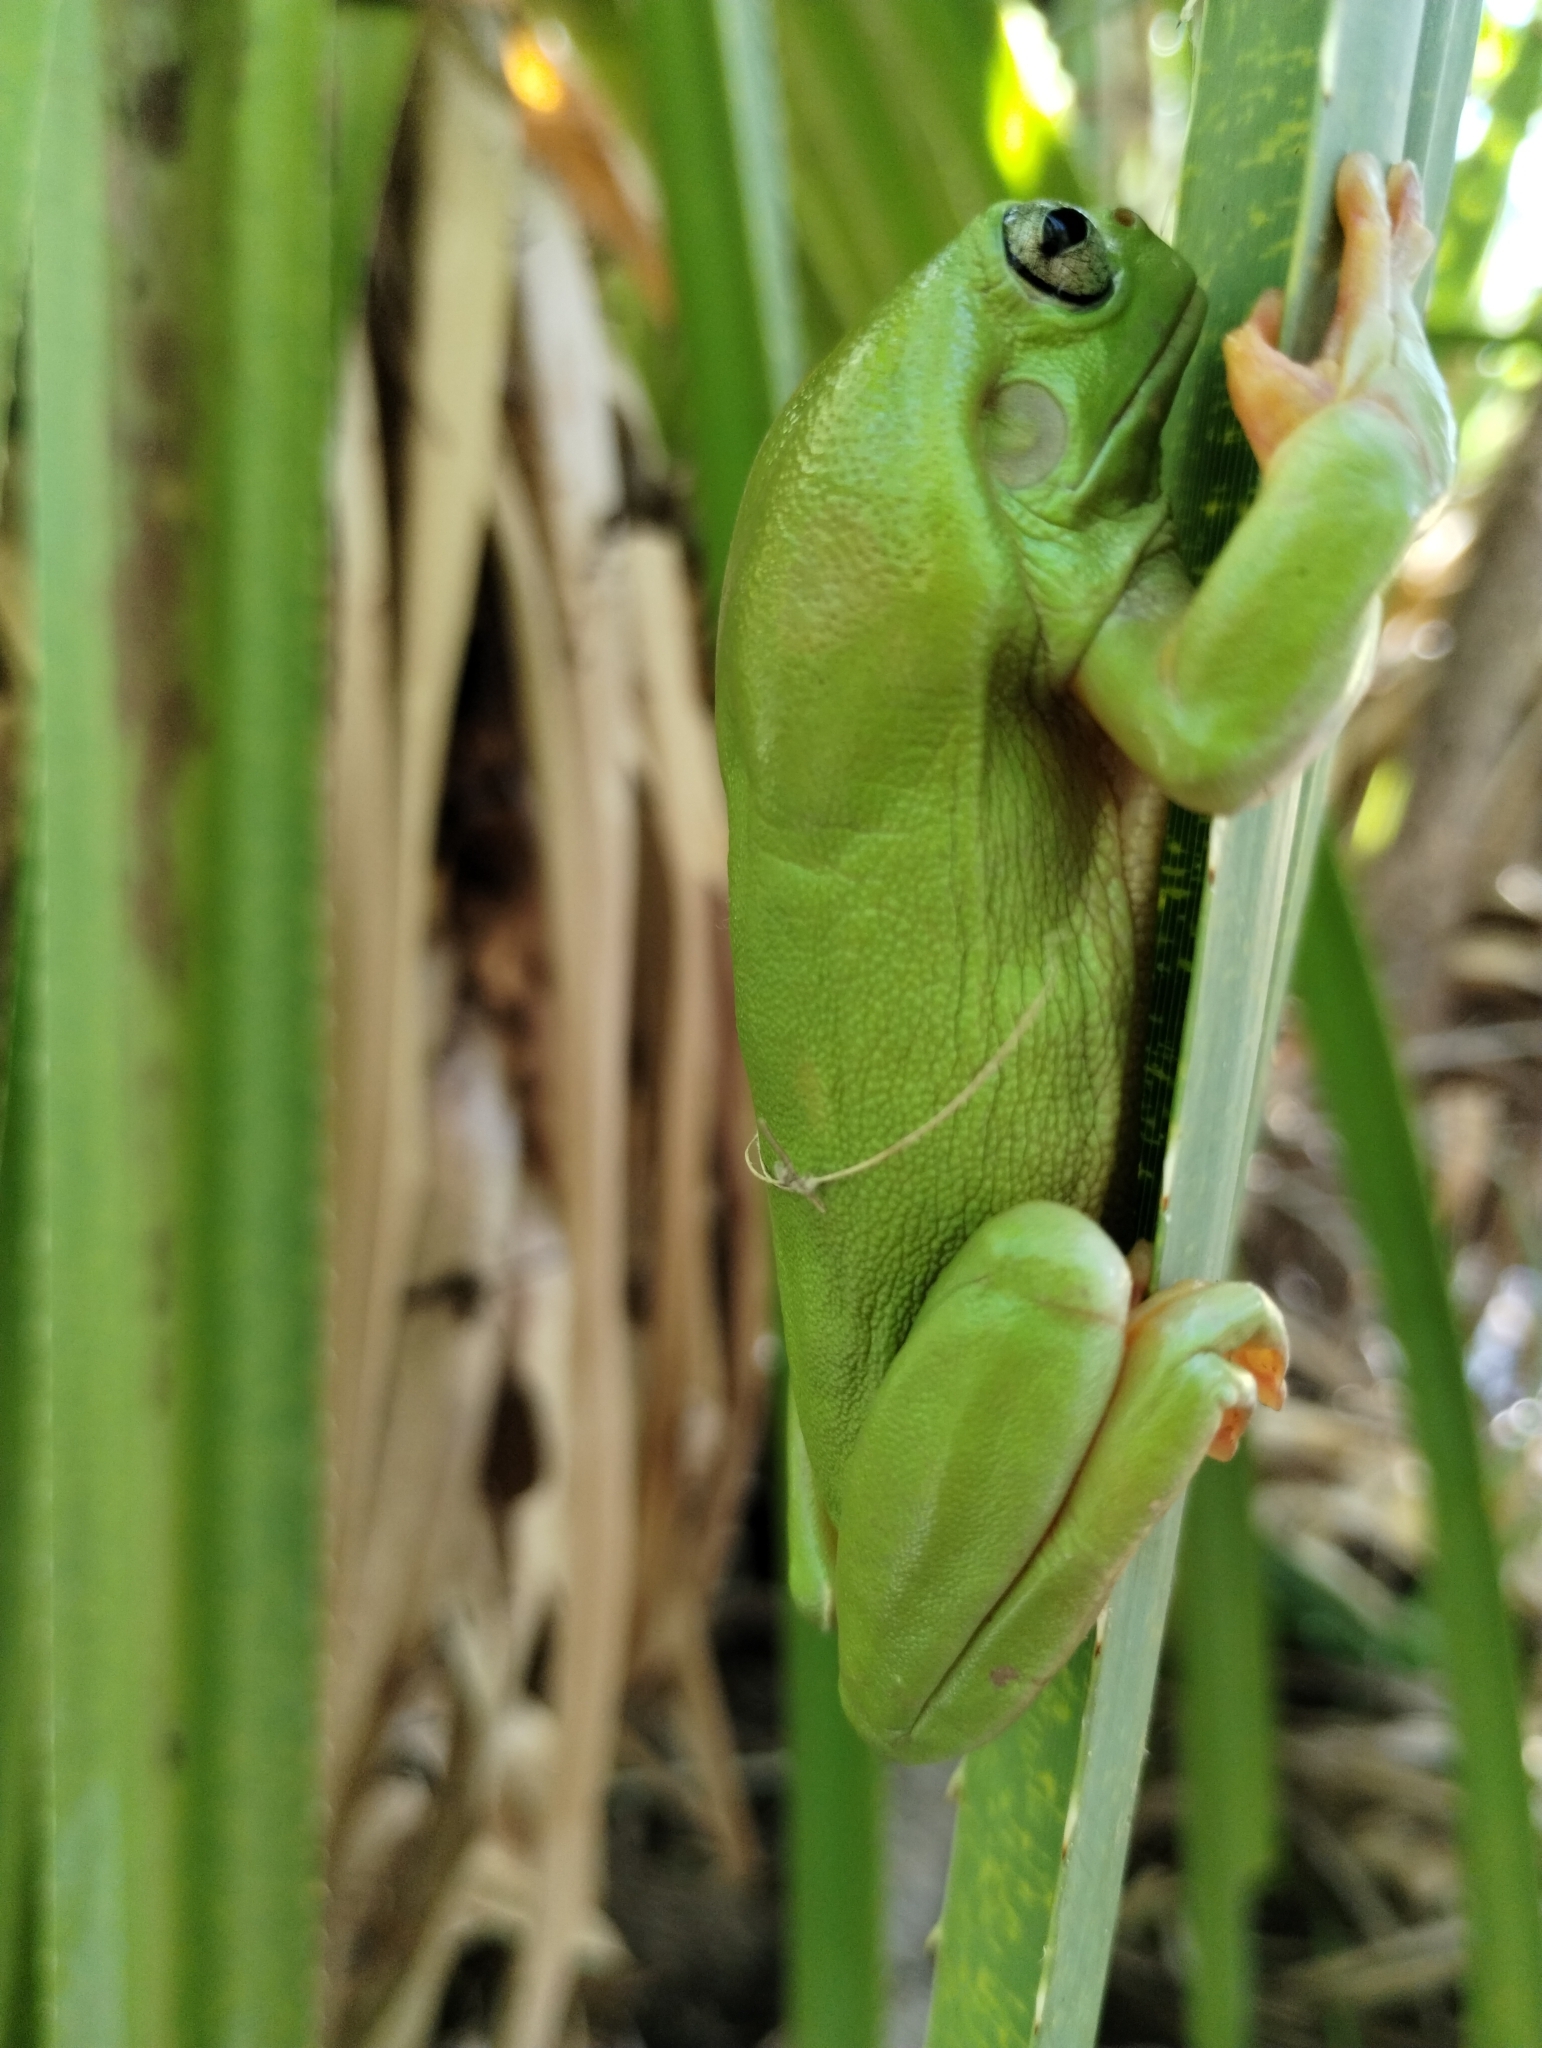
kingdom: Animalia
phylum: Chordata
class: Amphibia
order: Anura
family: Pelodryadidae
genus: Ranoidea
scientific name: Ranoidea caerulea
